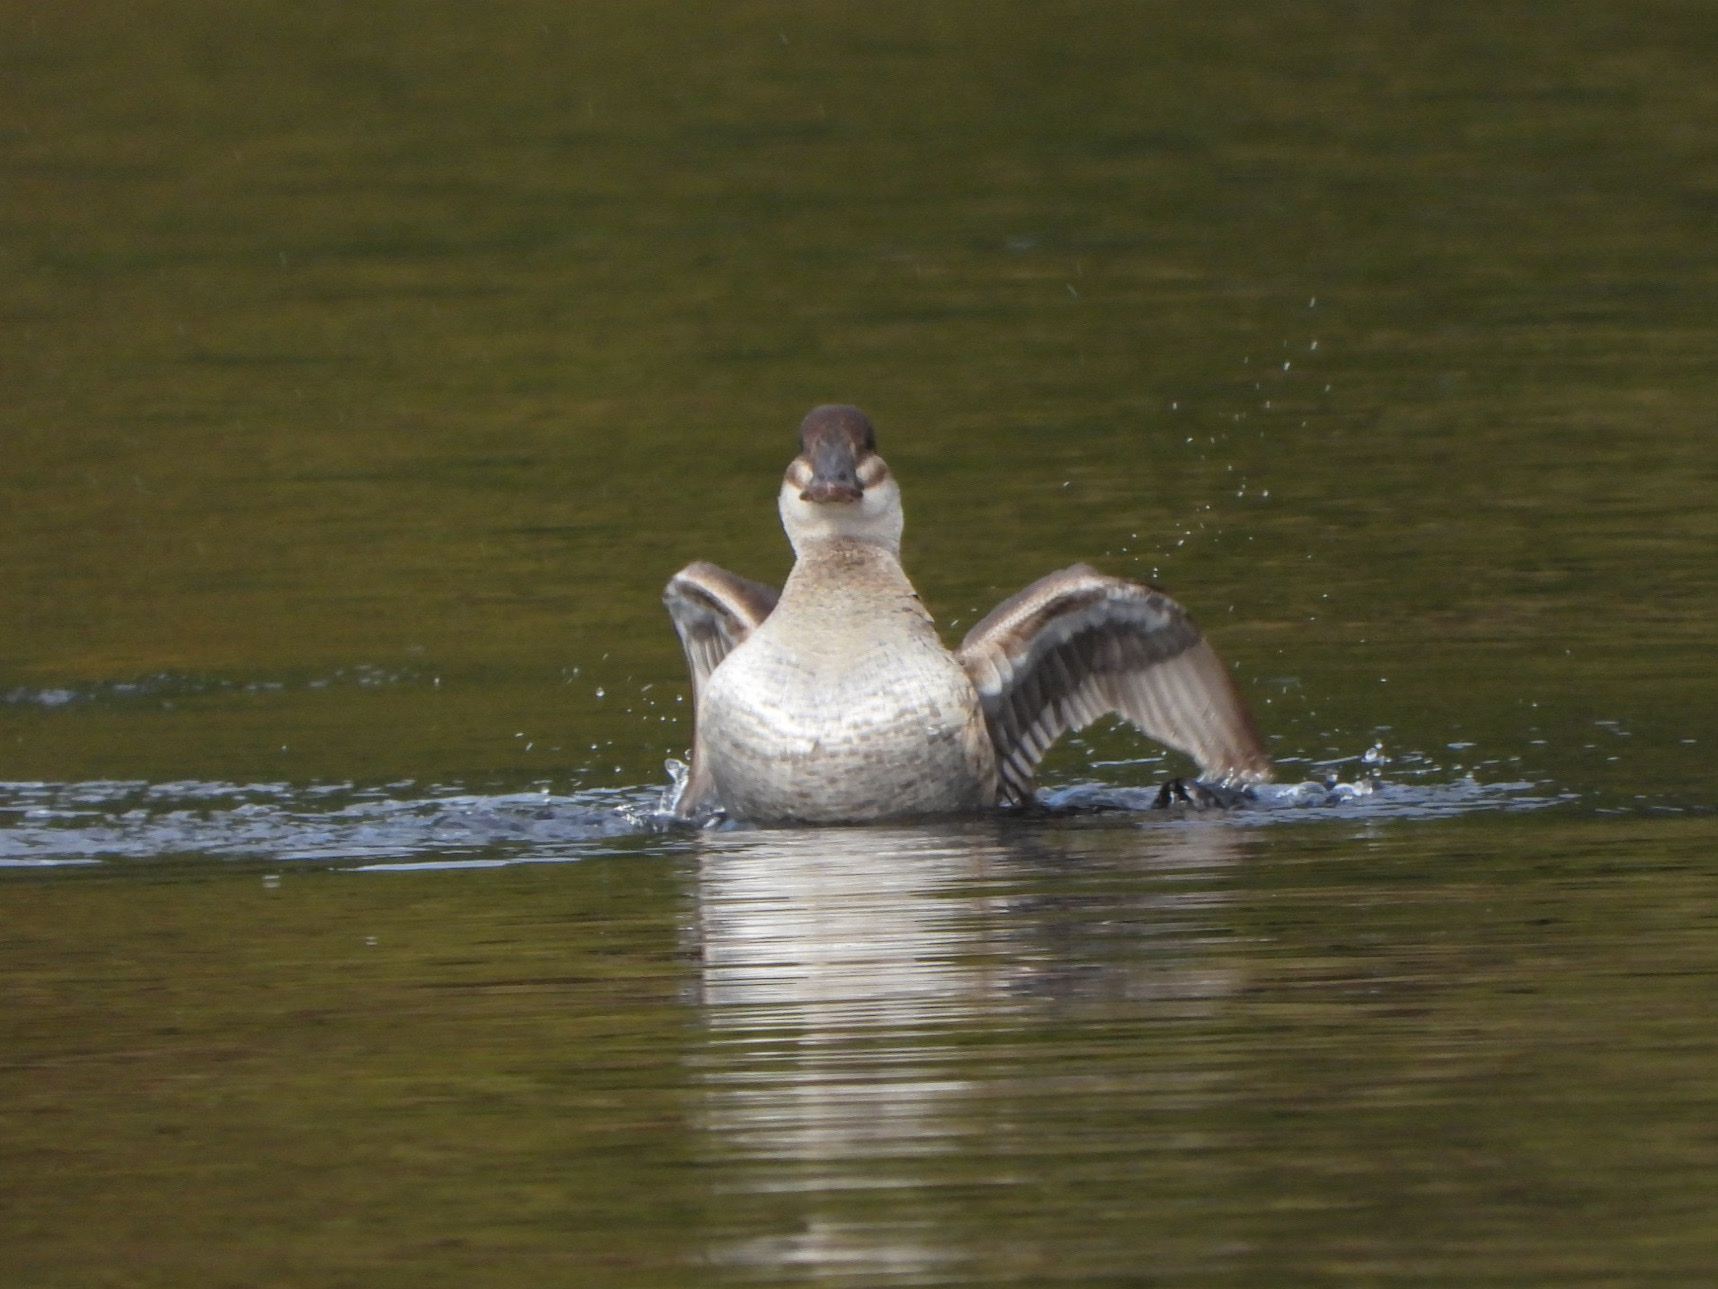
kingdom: Animalia
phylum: Chordata
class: Aves
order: Anseriformes
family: Anatidae
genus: Oxyura
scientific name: Oxyura jamaicensis
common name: Ruddy duck
